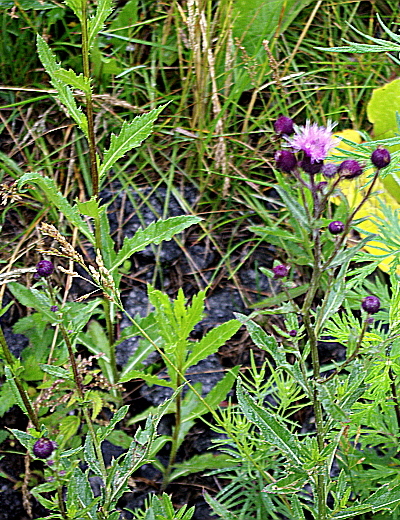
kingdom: Plantae
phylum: Tracheophyta
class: Magnoliopsida
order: Asterales
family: Asteraceae
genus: Cirsium
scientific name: Cirsium arvense
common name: Creeping thistle
